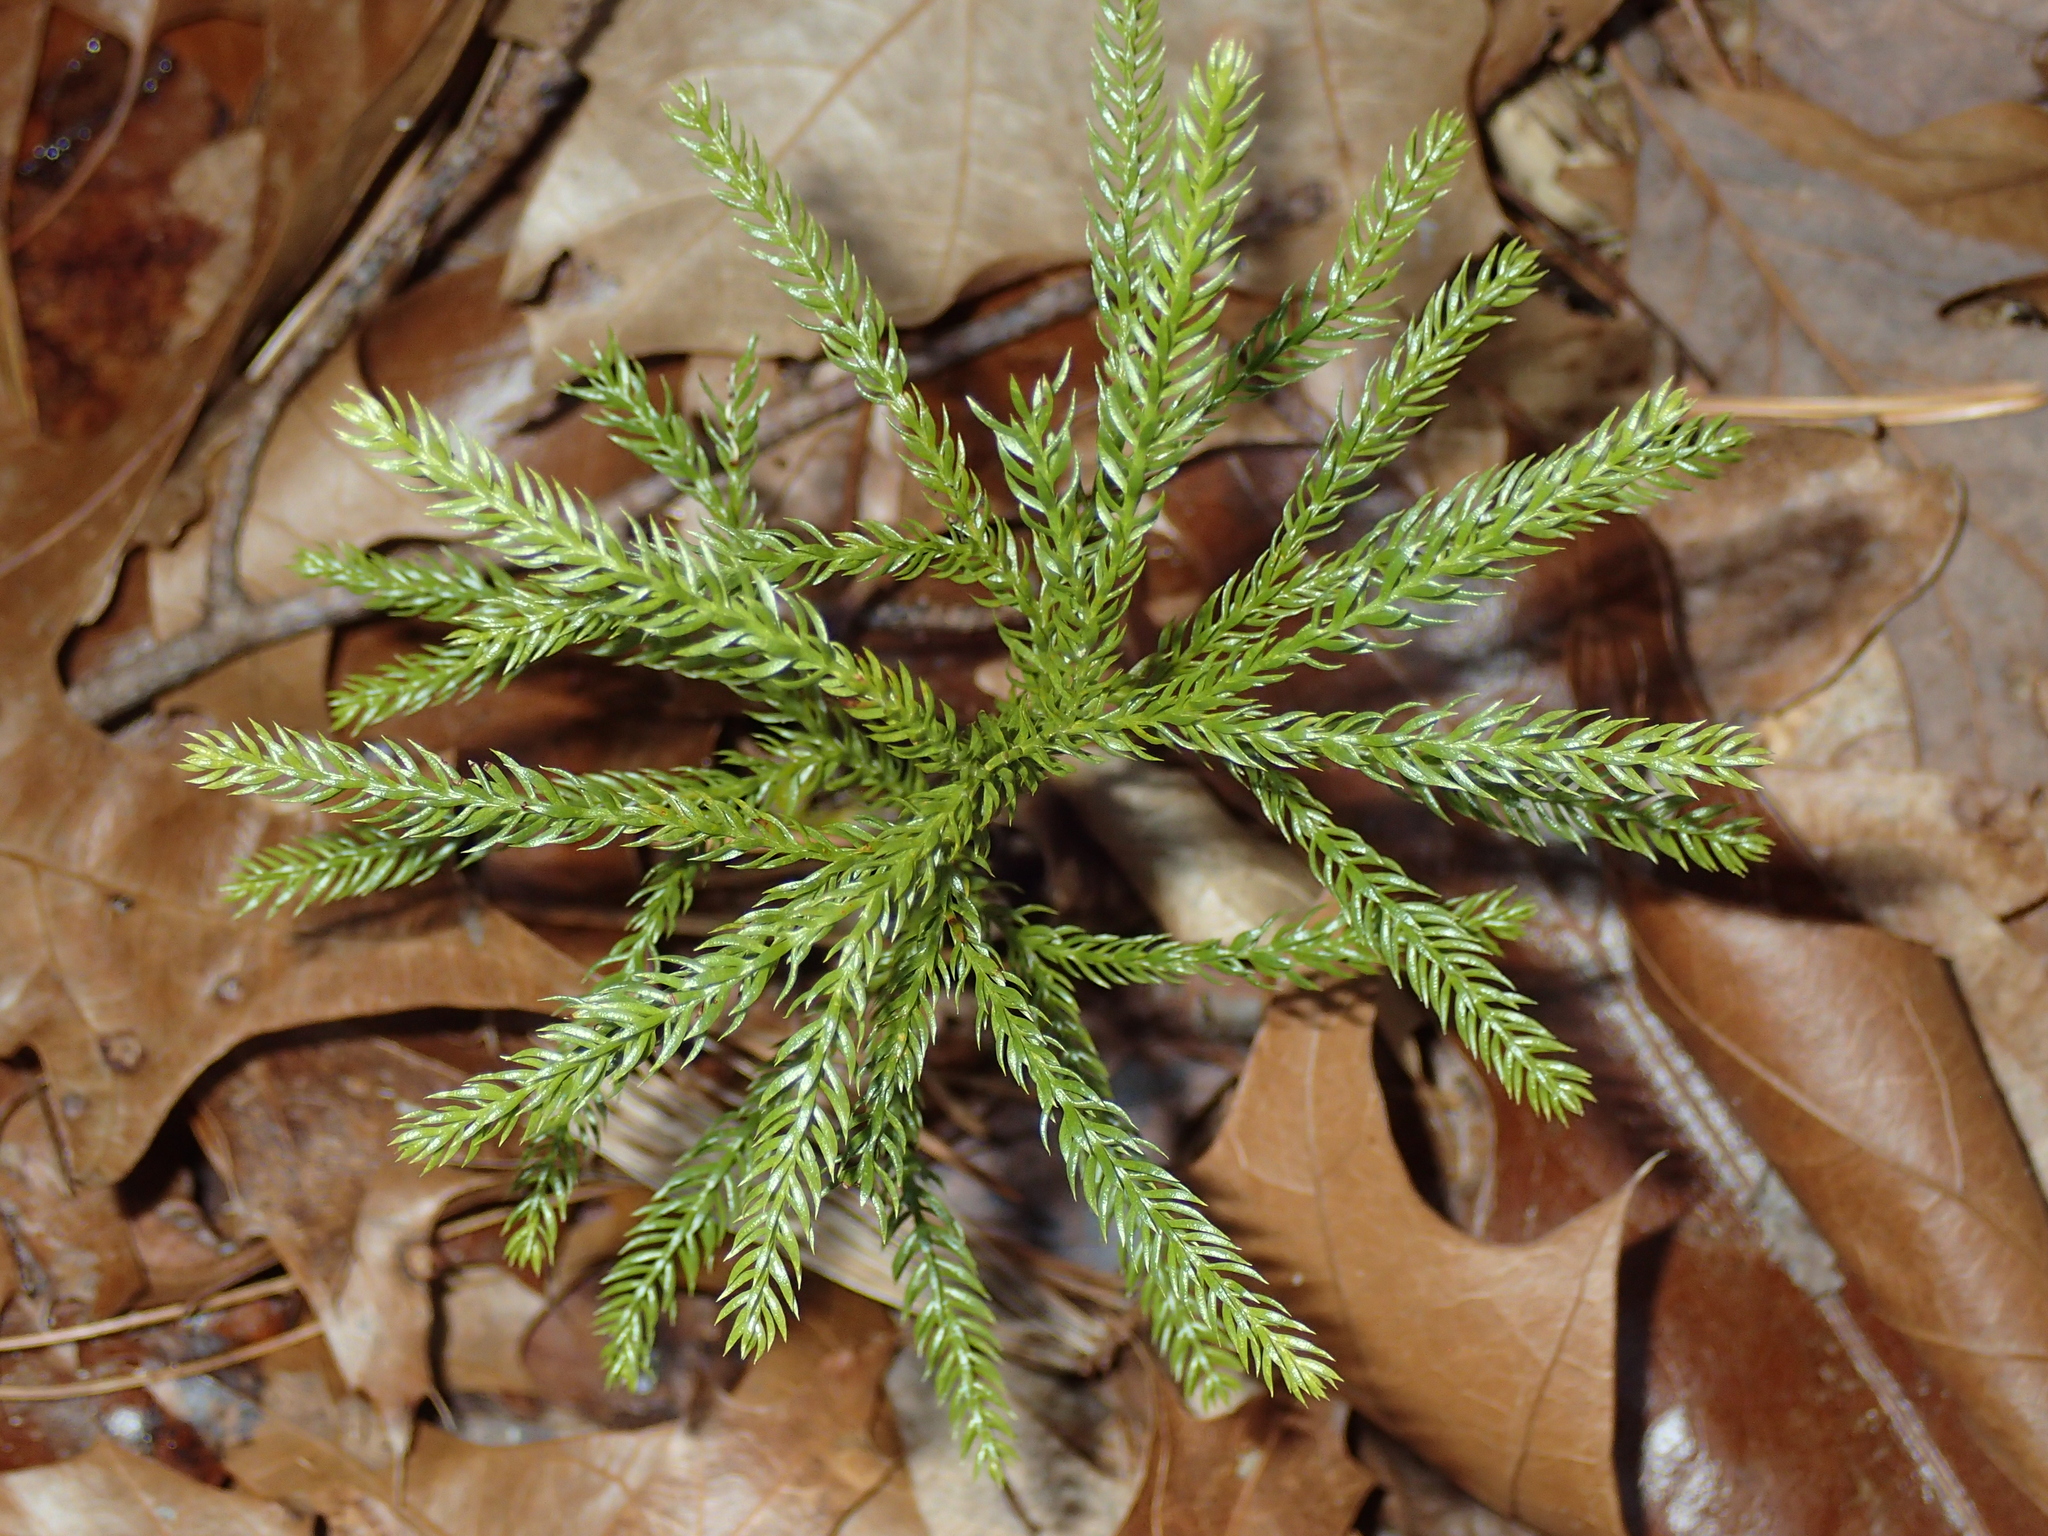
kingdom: Plantae
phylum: Tracheophyta
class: Lycopodiopsida
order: Lycopodiales
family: Lycopodiaceae
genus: Dendrolycopodium
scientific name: Dendrolycopodium hickeyi
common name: Hickey's clubmoss
